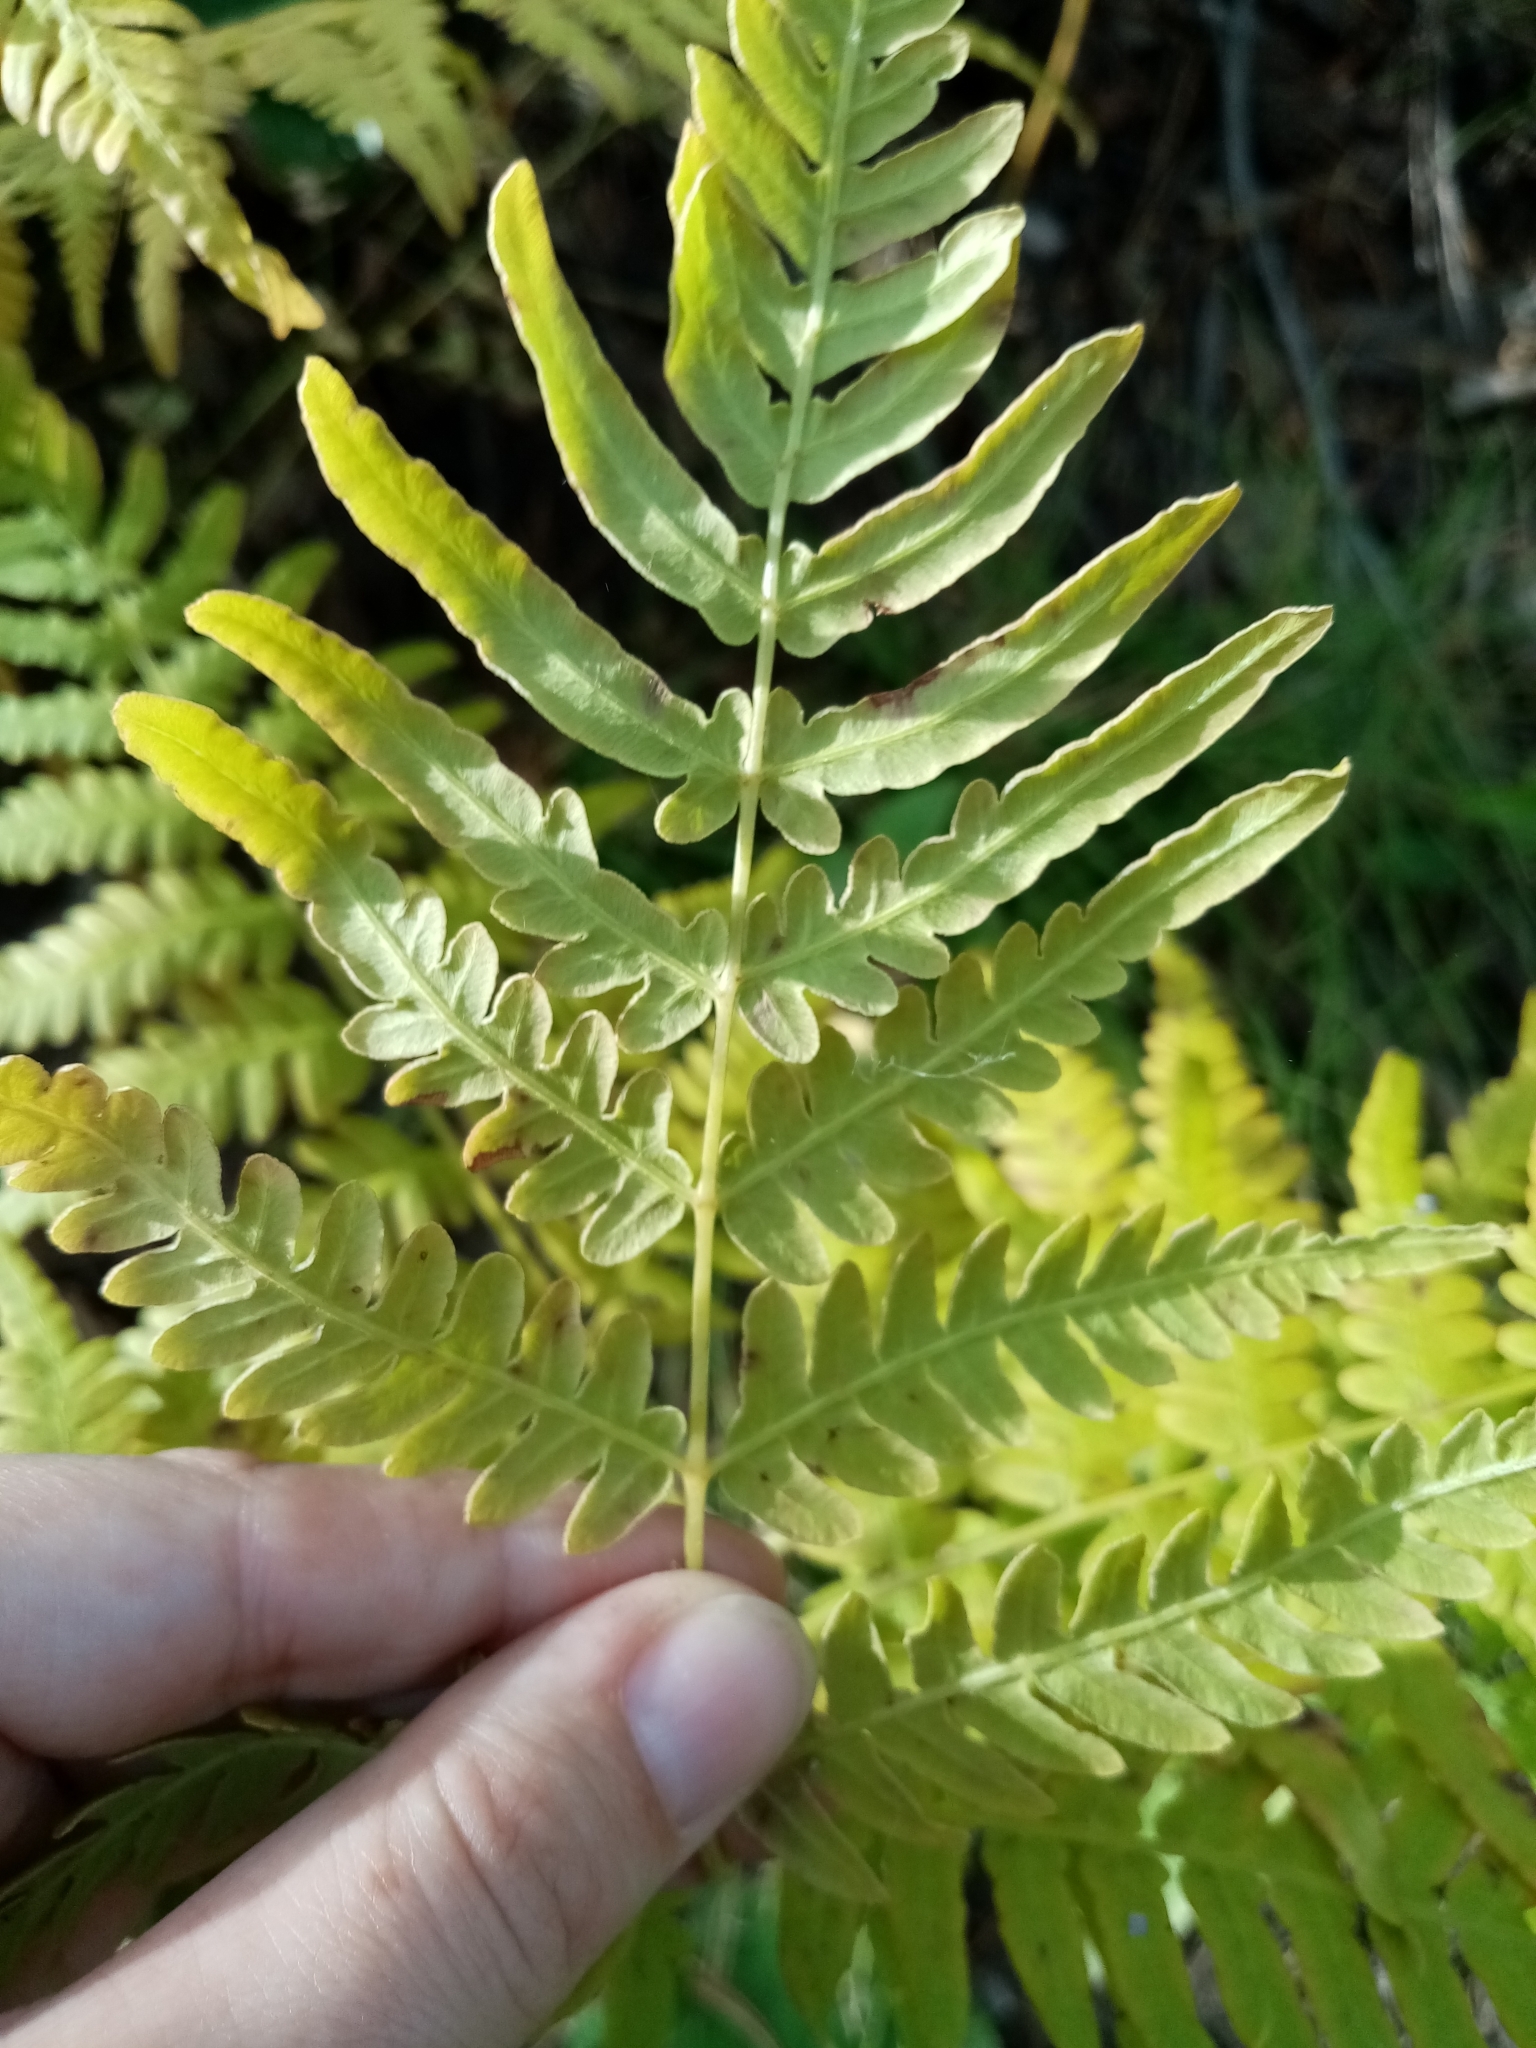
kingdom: Plantae
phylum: Tracheophyta
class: Polypodiopsida
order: Polypodiales
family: Dennstaedtiaceae
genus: Pteridium
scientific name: Pteridium aquilinum
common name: Bracken
